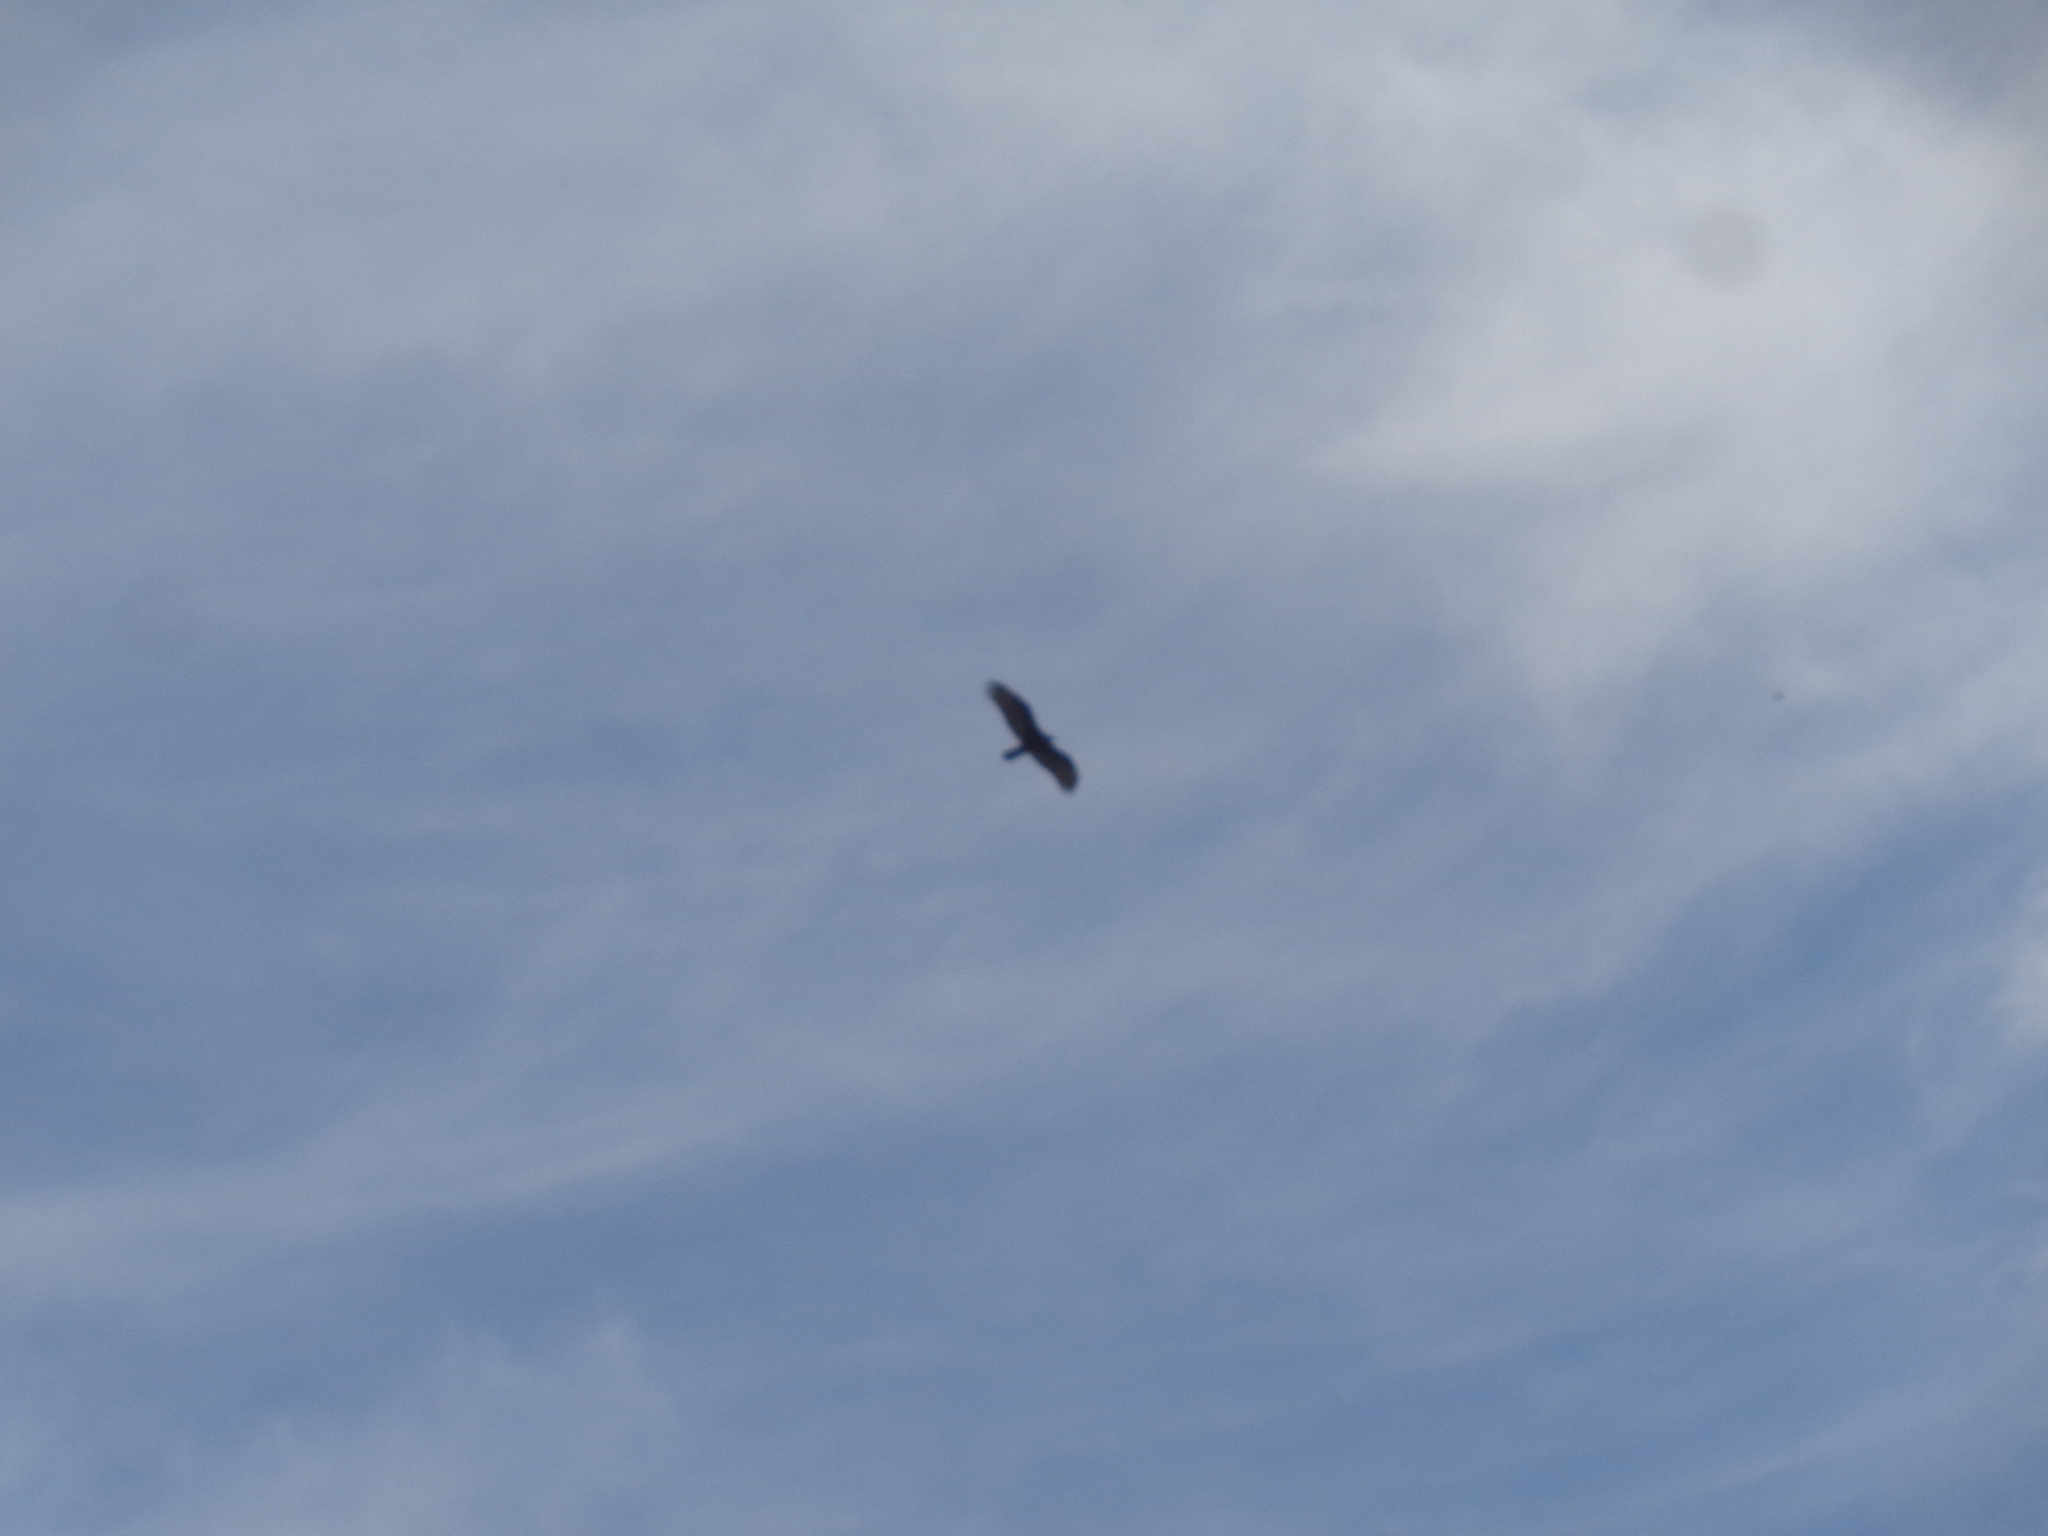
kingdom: Animalia
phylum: Chordata
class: Aves
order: Accipitriformes
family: Cathartidae
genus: Cathartes
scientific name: Cathartes aura
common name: Turkey vulture
